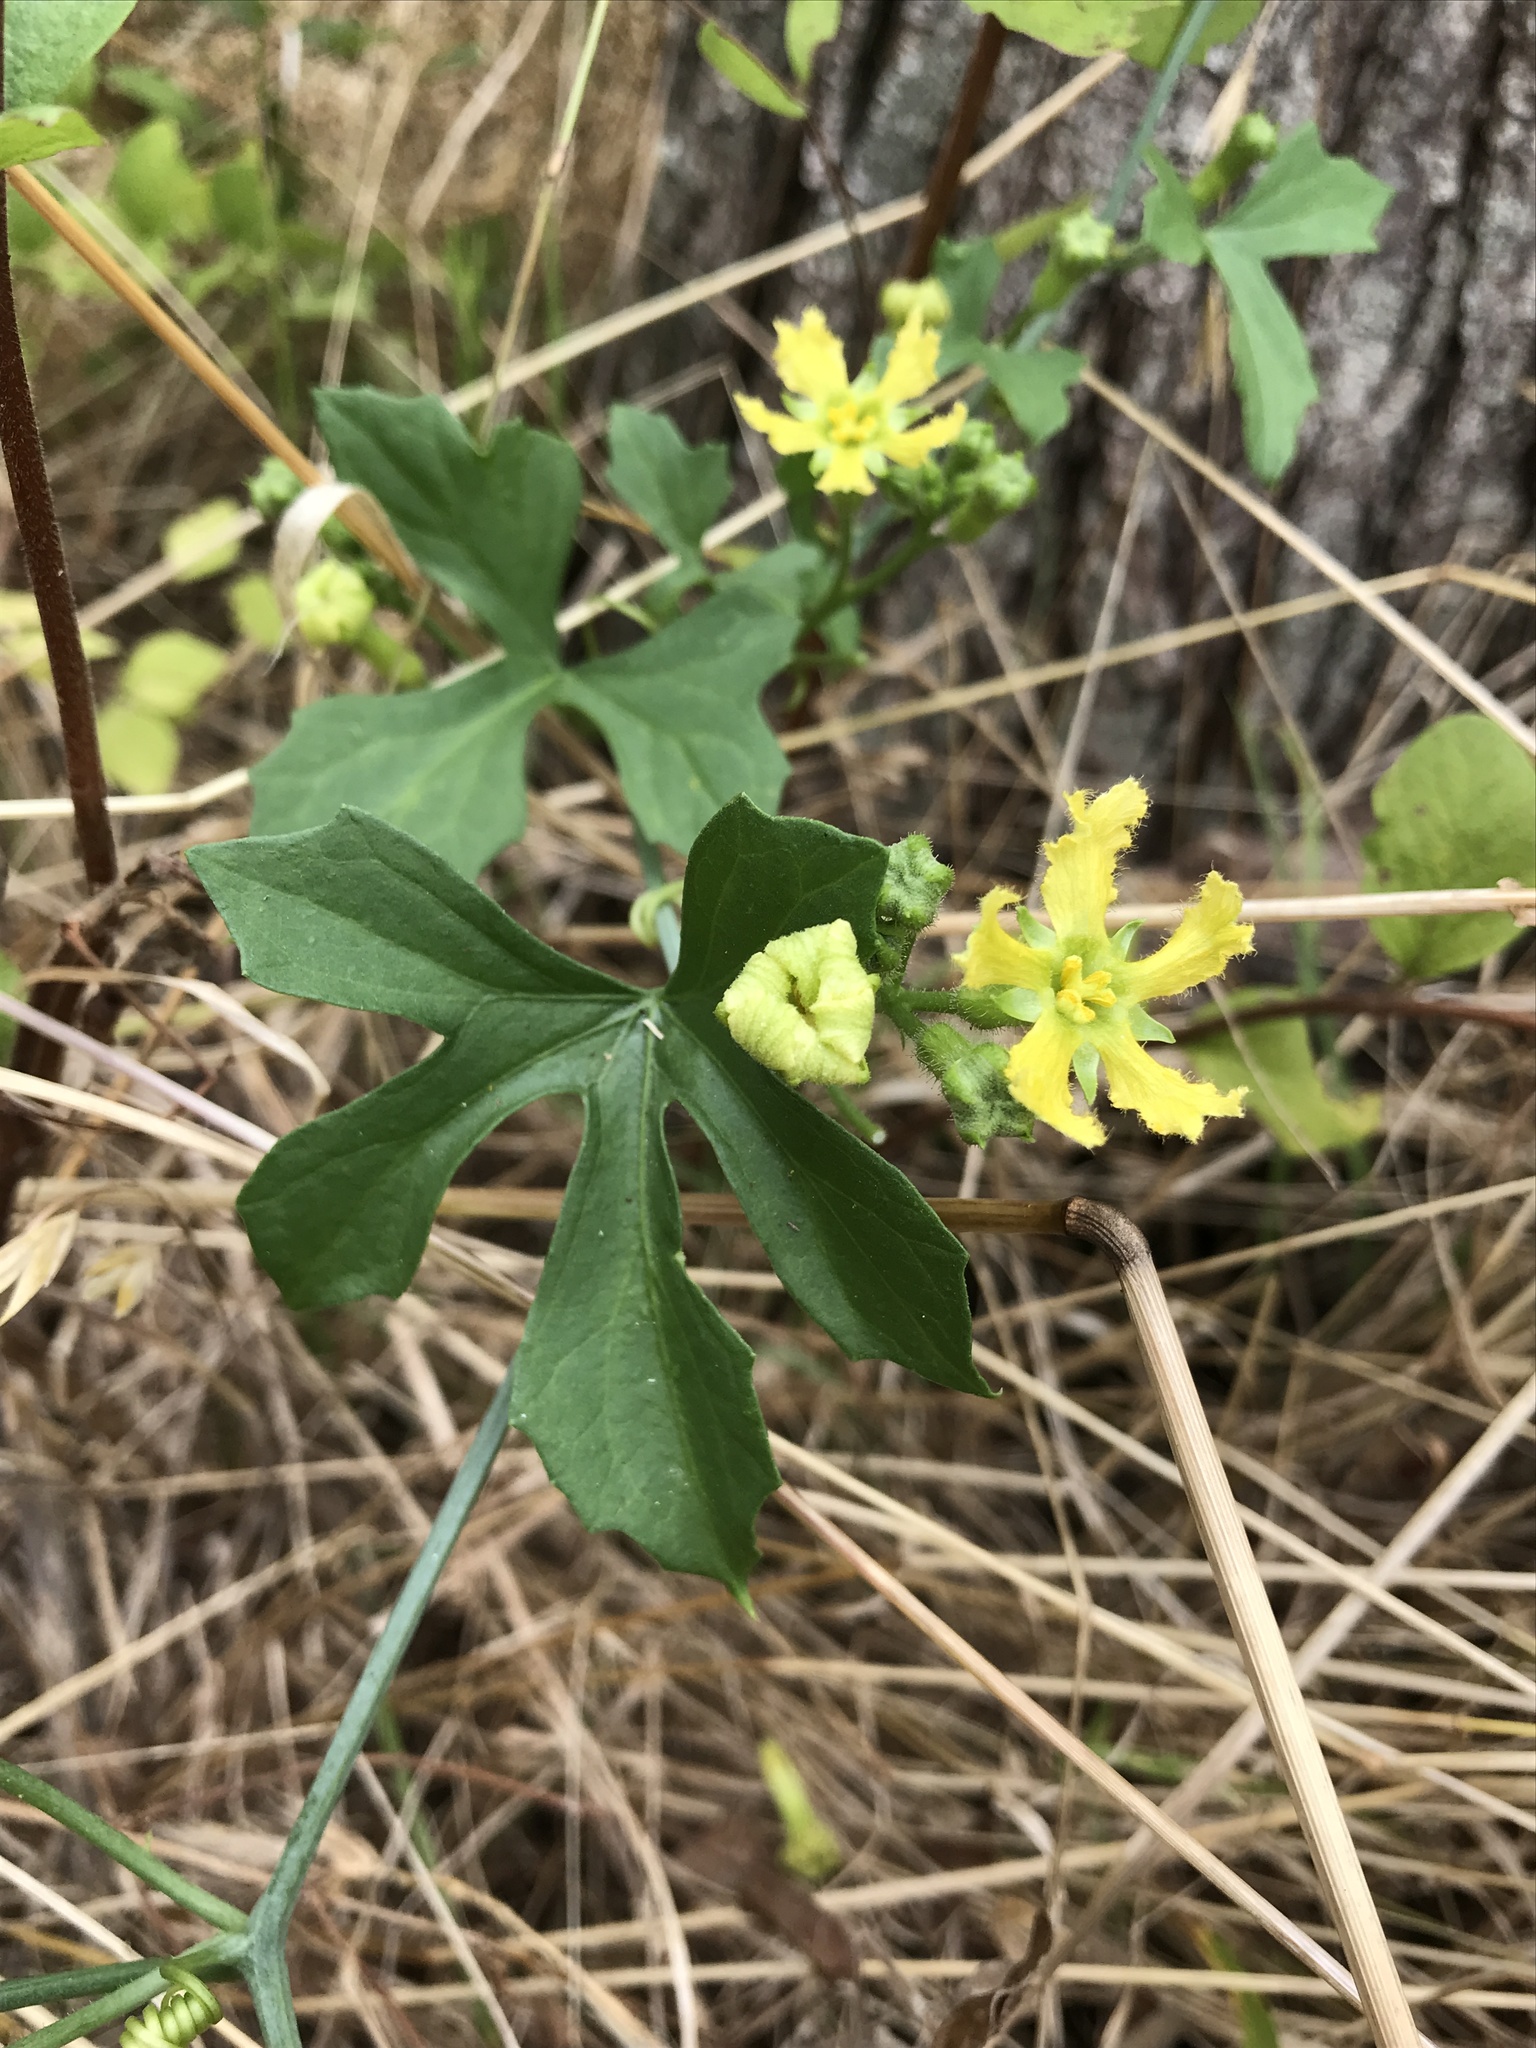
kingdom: Plantae
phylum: Tracheophyta
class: Magnoliopsida
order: Cucurbitales
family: Cucurbitaceae
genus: Ibervillea
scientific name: Ibervillea lindheimeri
